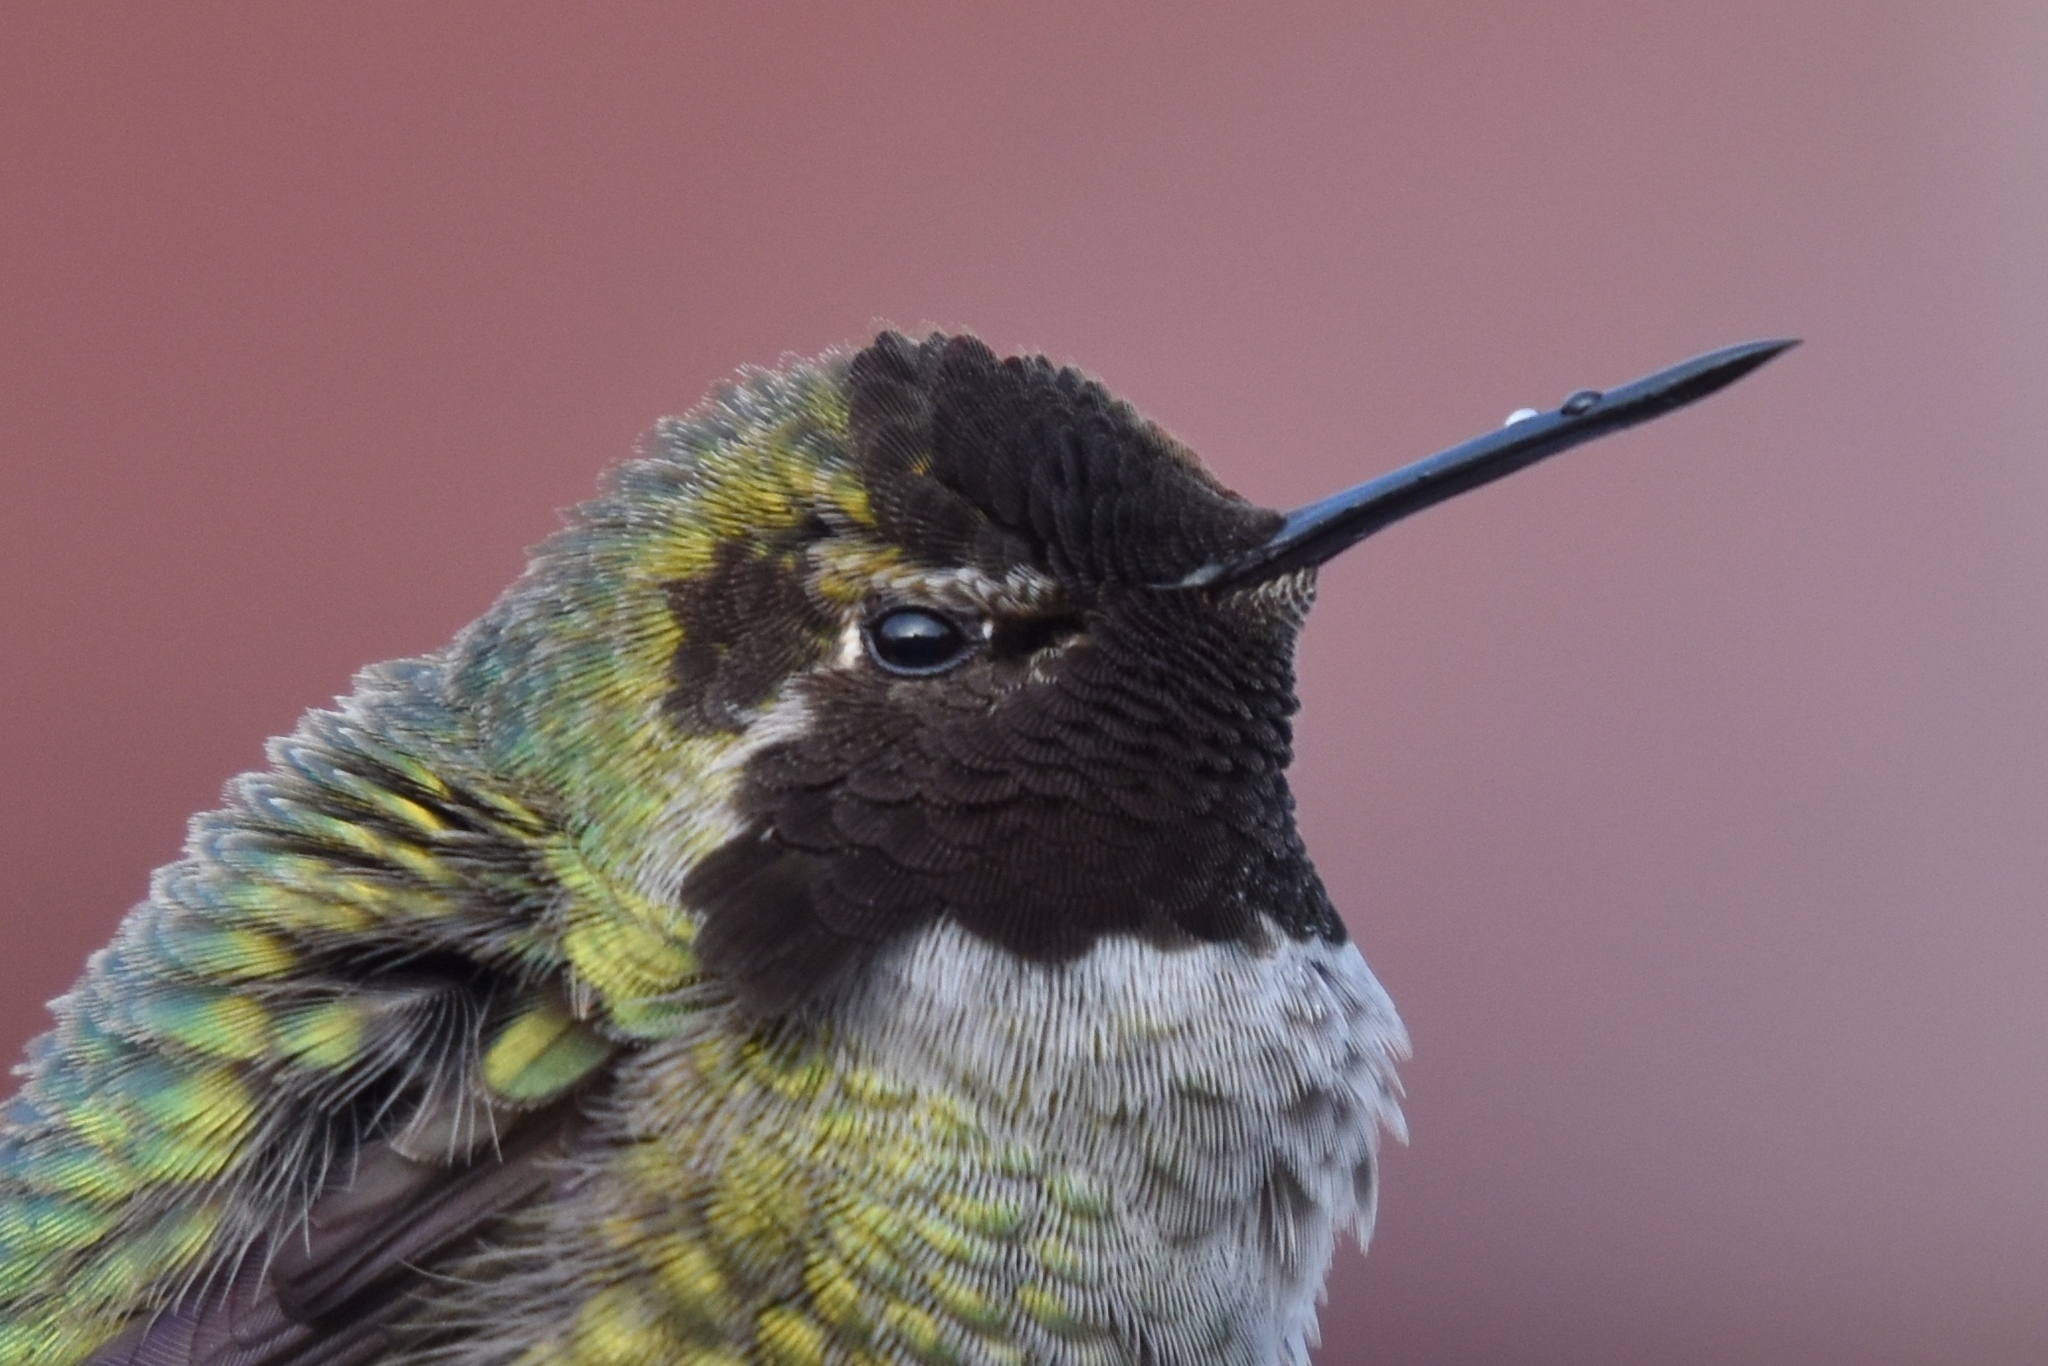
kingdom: Animalia
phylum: Chordata
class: Aves
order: Apodiformes
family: Trochilidae
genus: Calypte
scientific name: Calypte anna
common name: Anna's hummingbird
